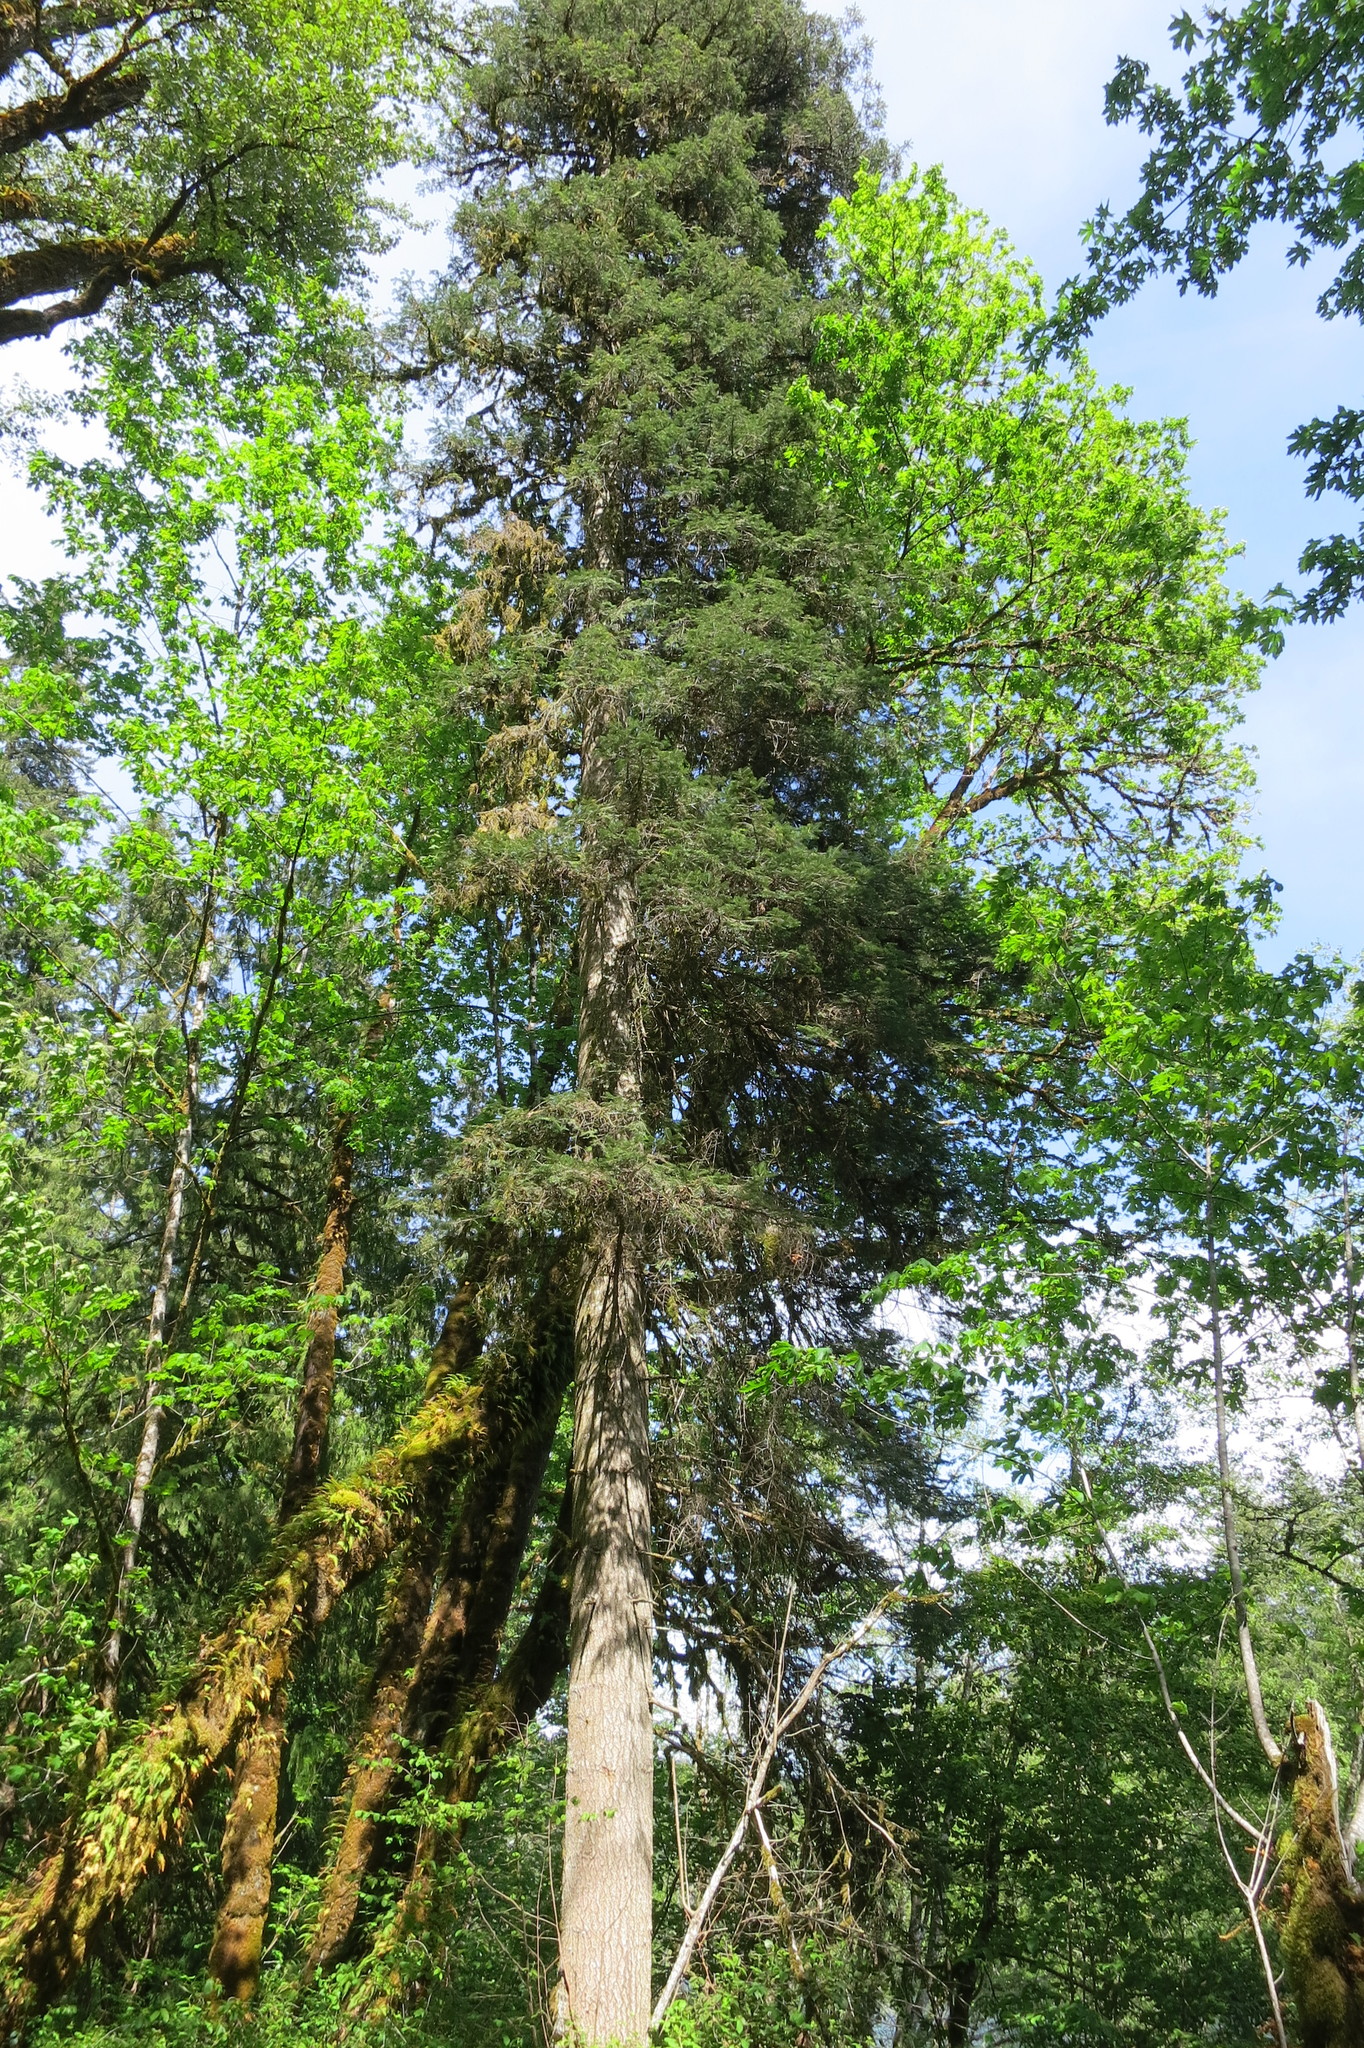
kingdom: Plantae
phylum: Tracheophyta
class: Pinopsida
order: Pinales
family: Pinaceae
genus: Abies
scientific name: Abies grandis
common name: Giant fir
